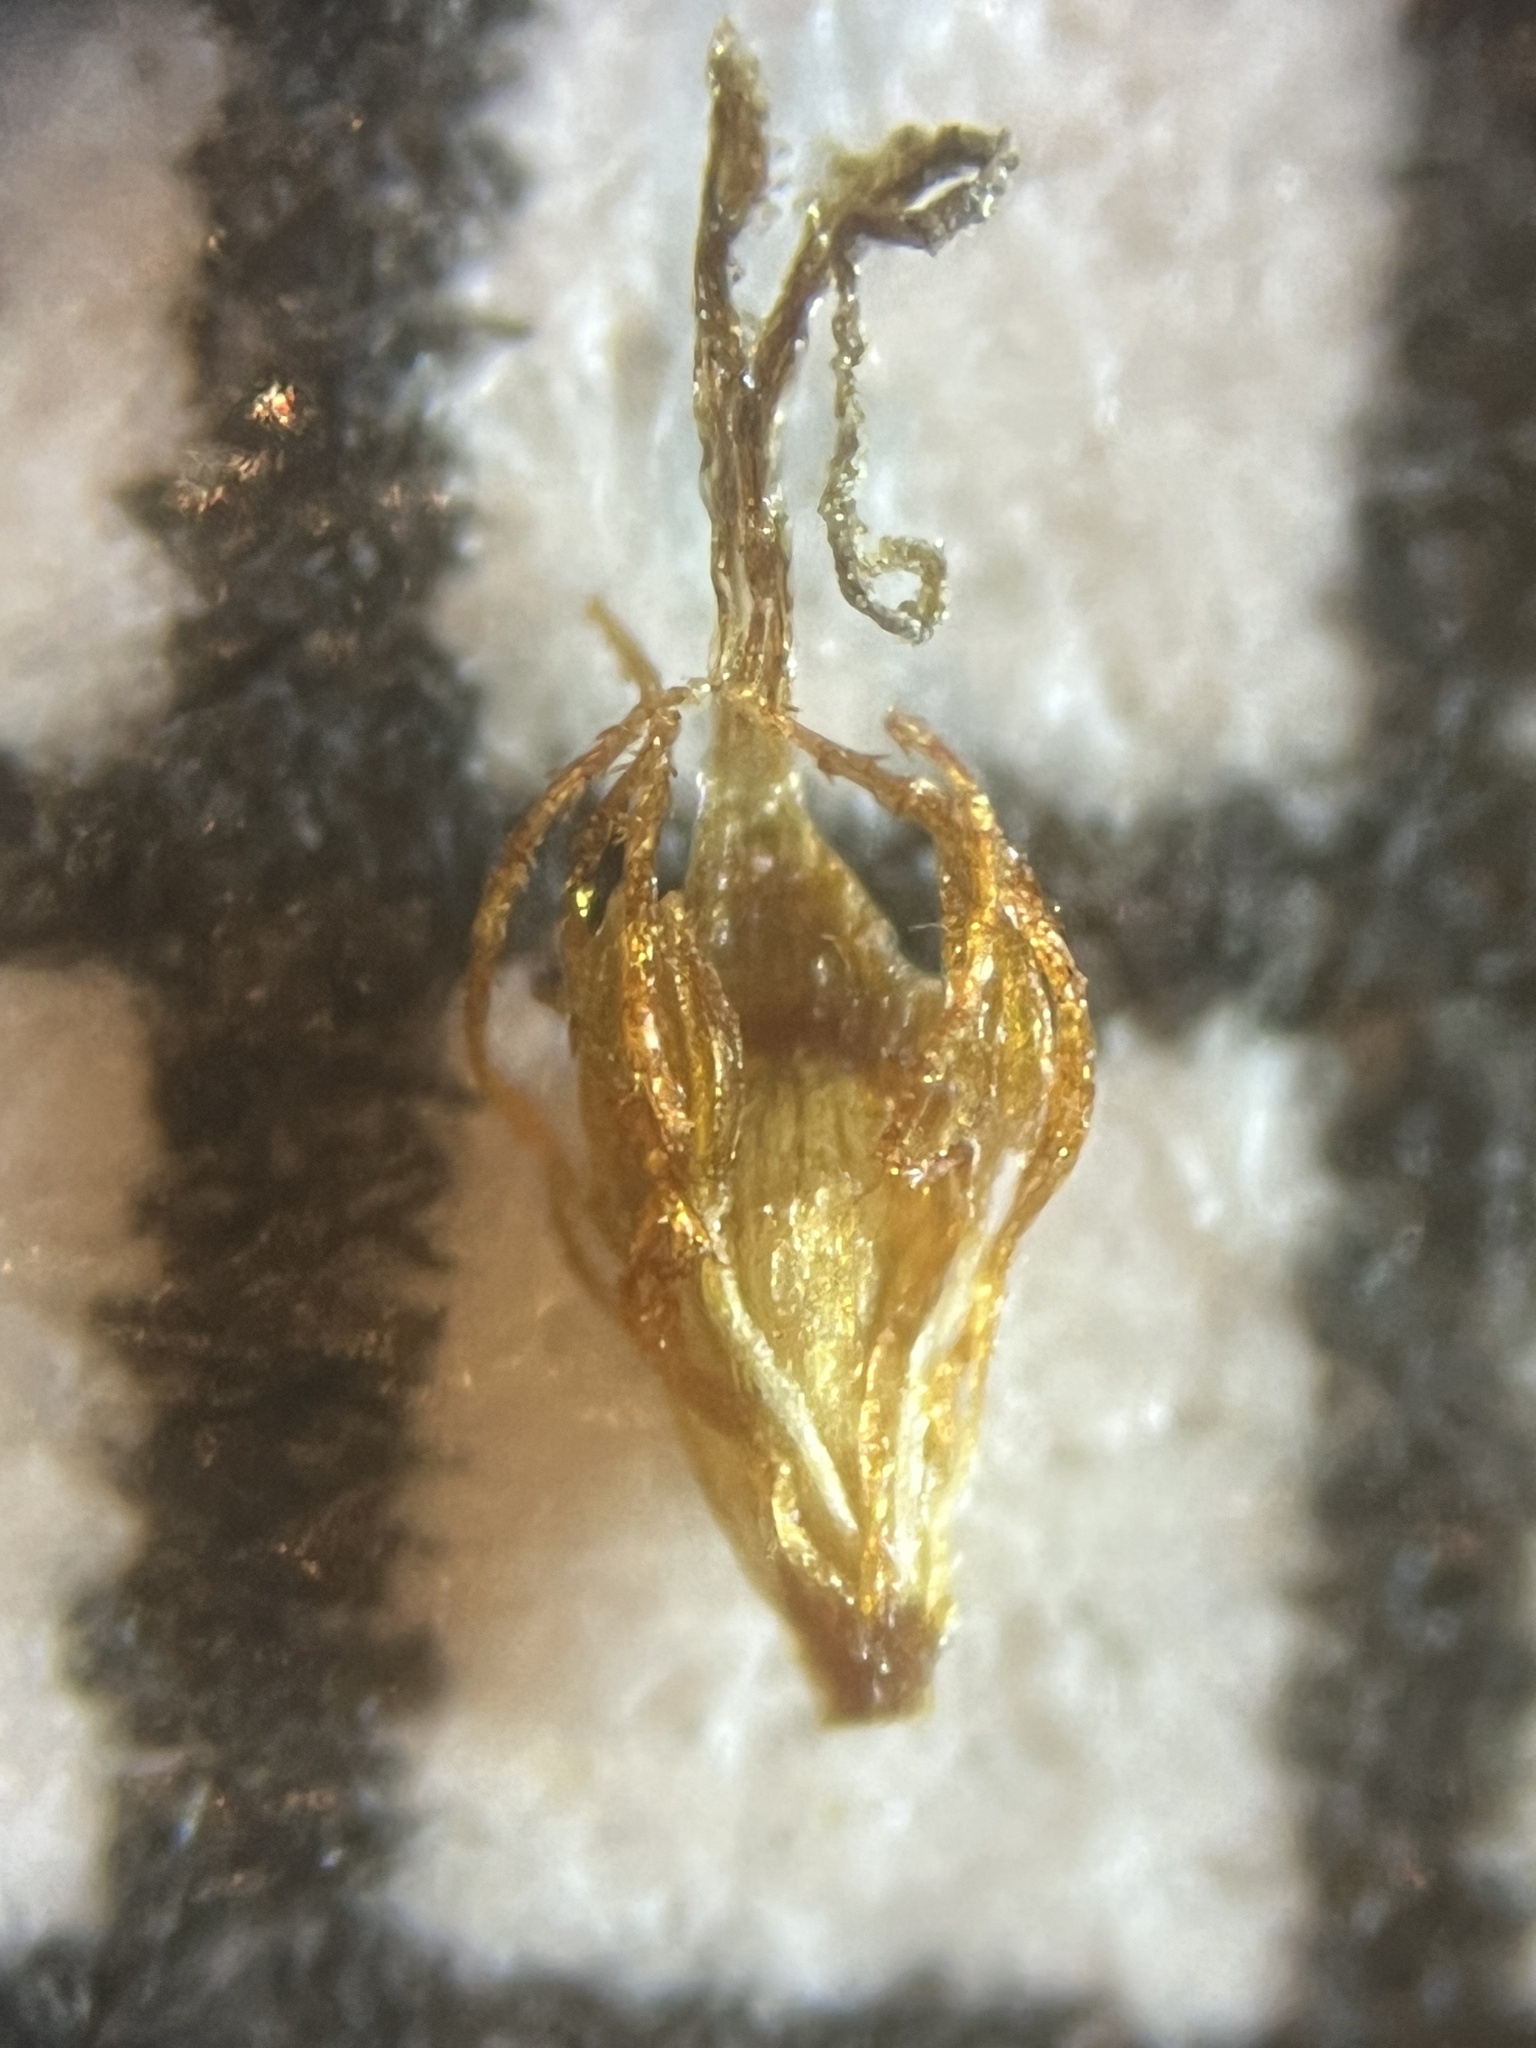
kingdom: Plantae
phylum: Tracheophyta
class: Liliopsida
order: Poales
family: Cyperaceae
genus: Eleocharis
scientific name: Eleocharis engelmannii
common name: Engelmann's spikerush
